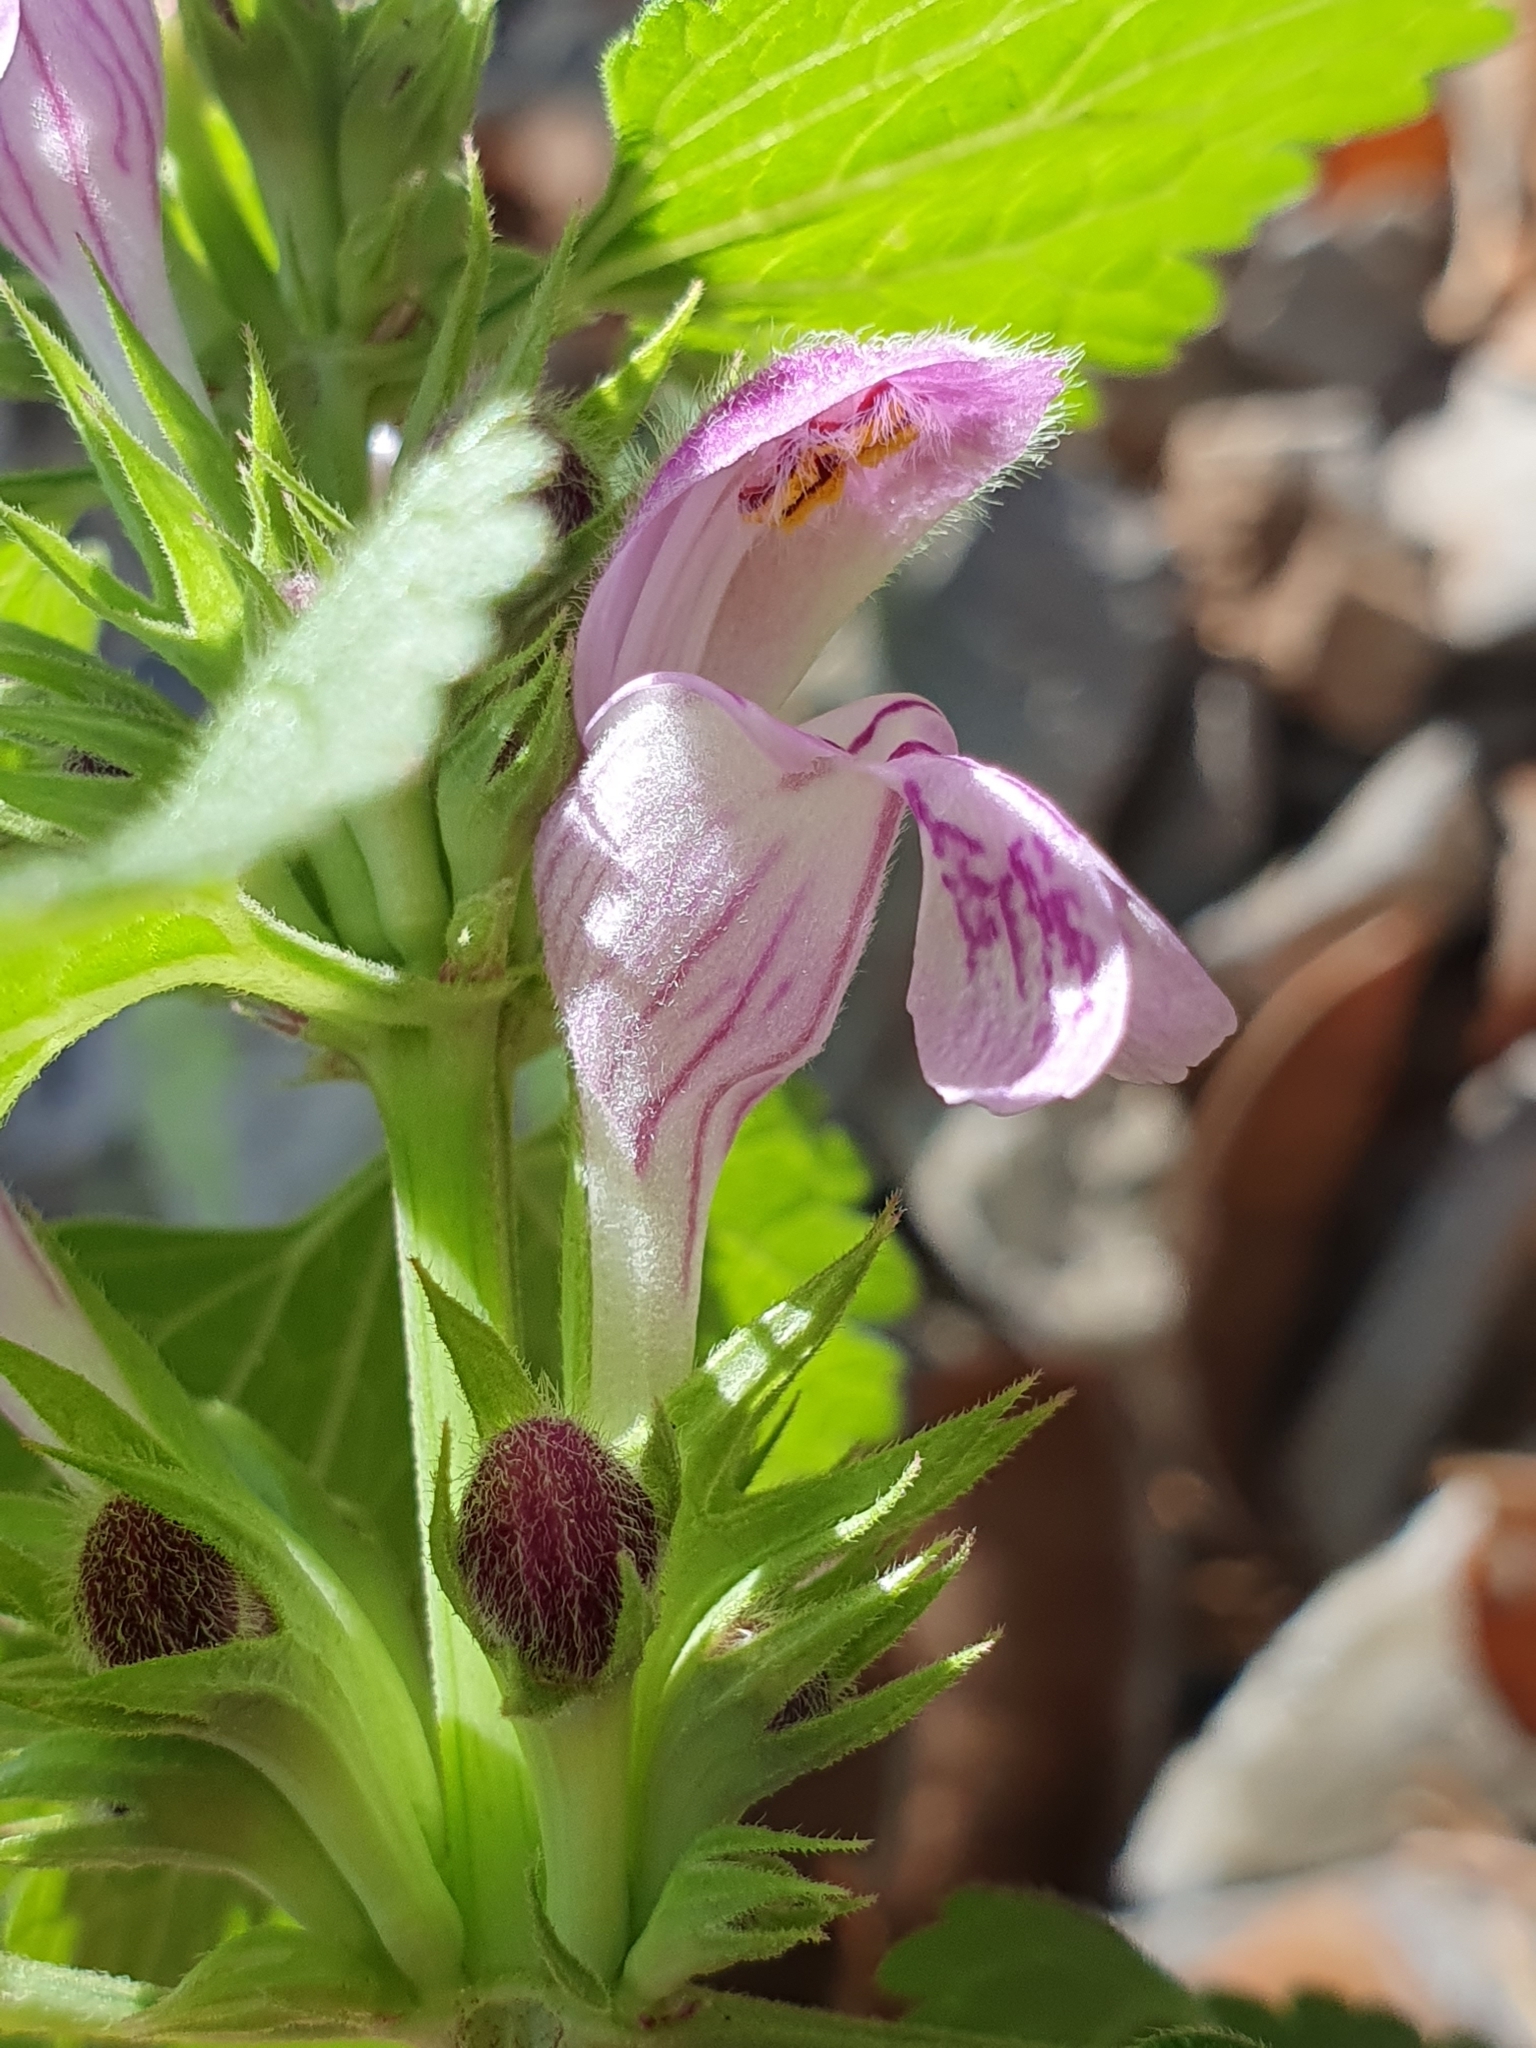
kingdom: Plantae
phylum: Tracheophyta
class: Magnoliopsida
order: Lamiales
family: Lamiaceae
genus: Lamium
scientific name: Lamium garganicum
